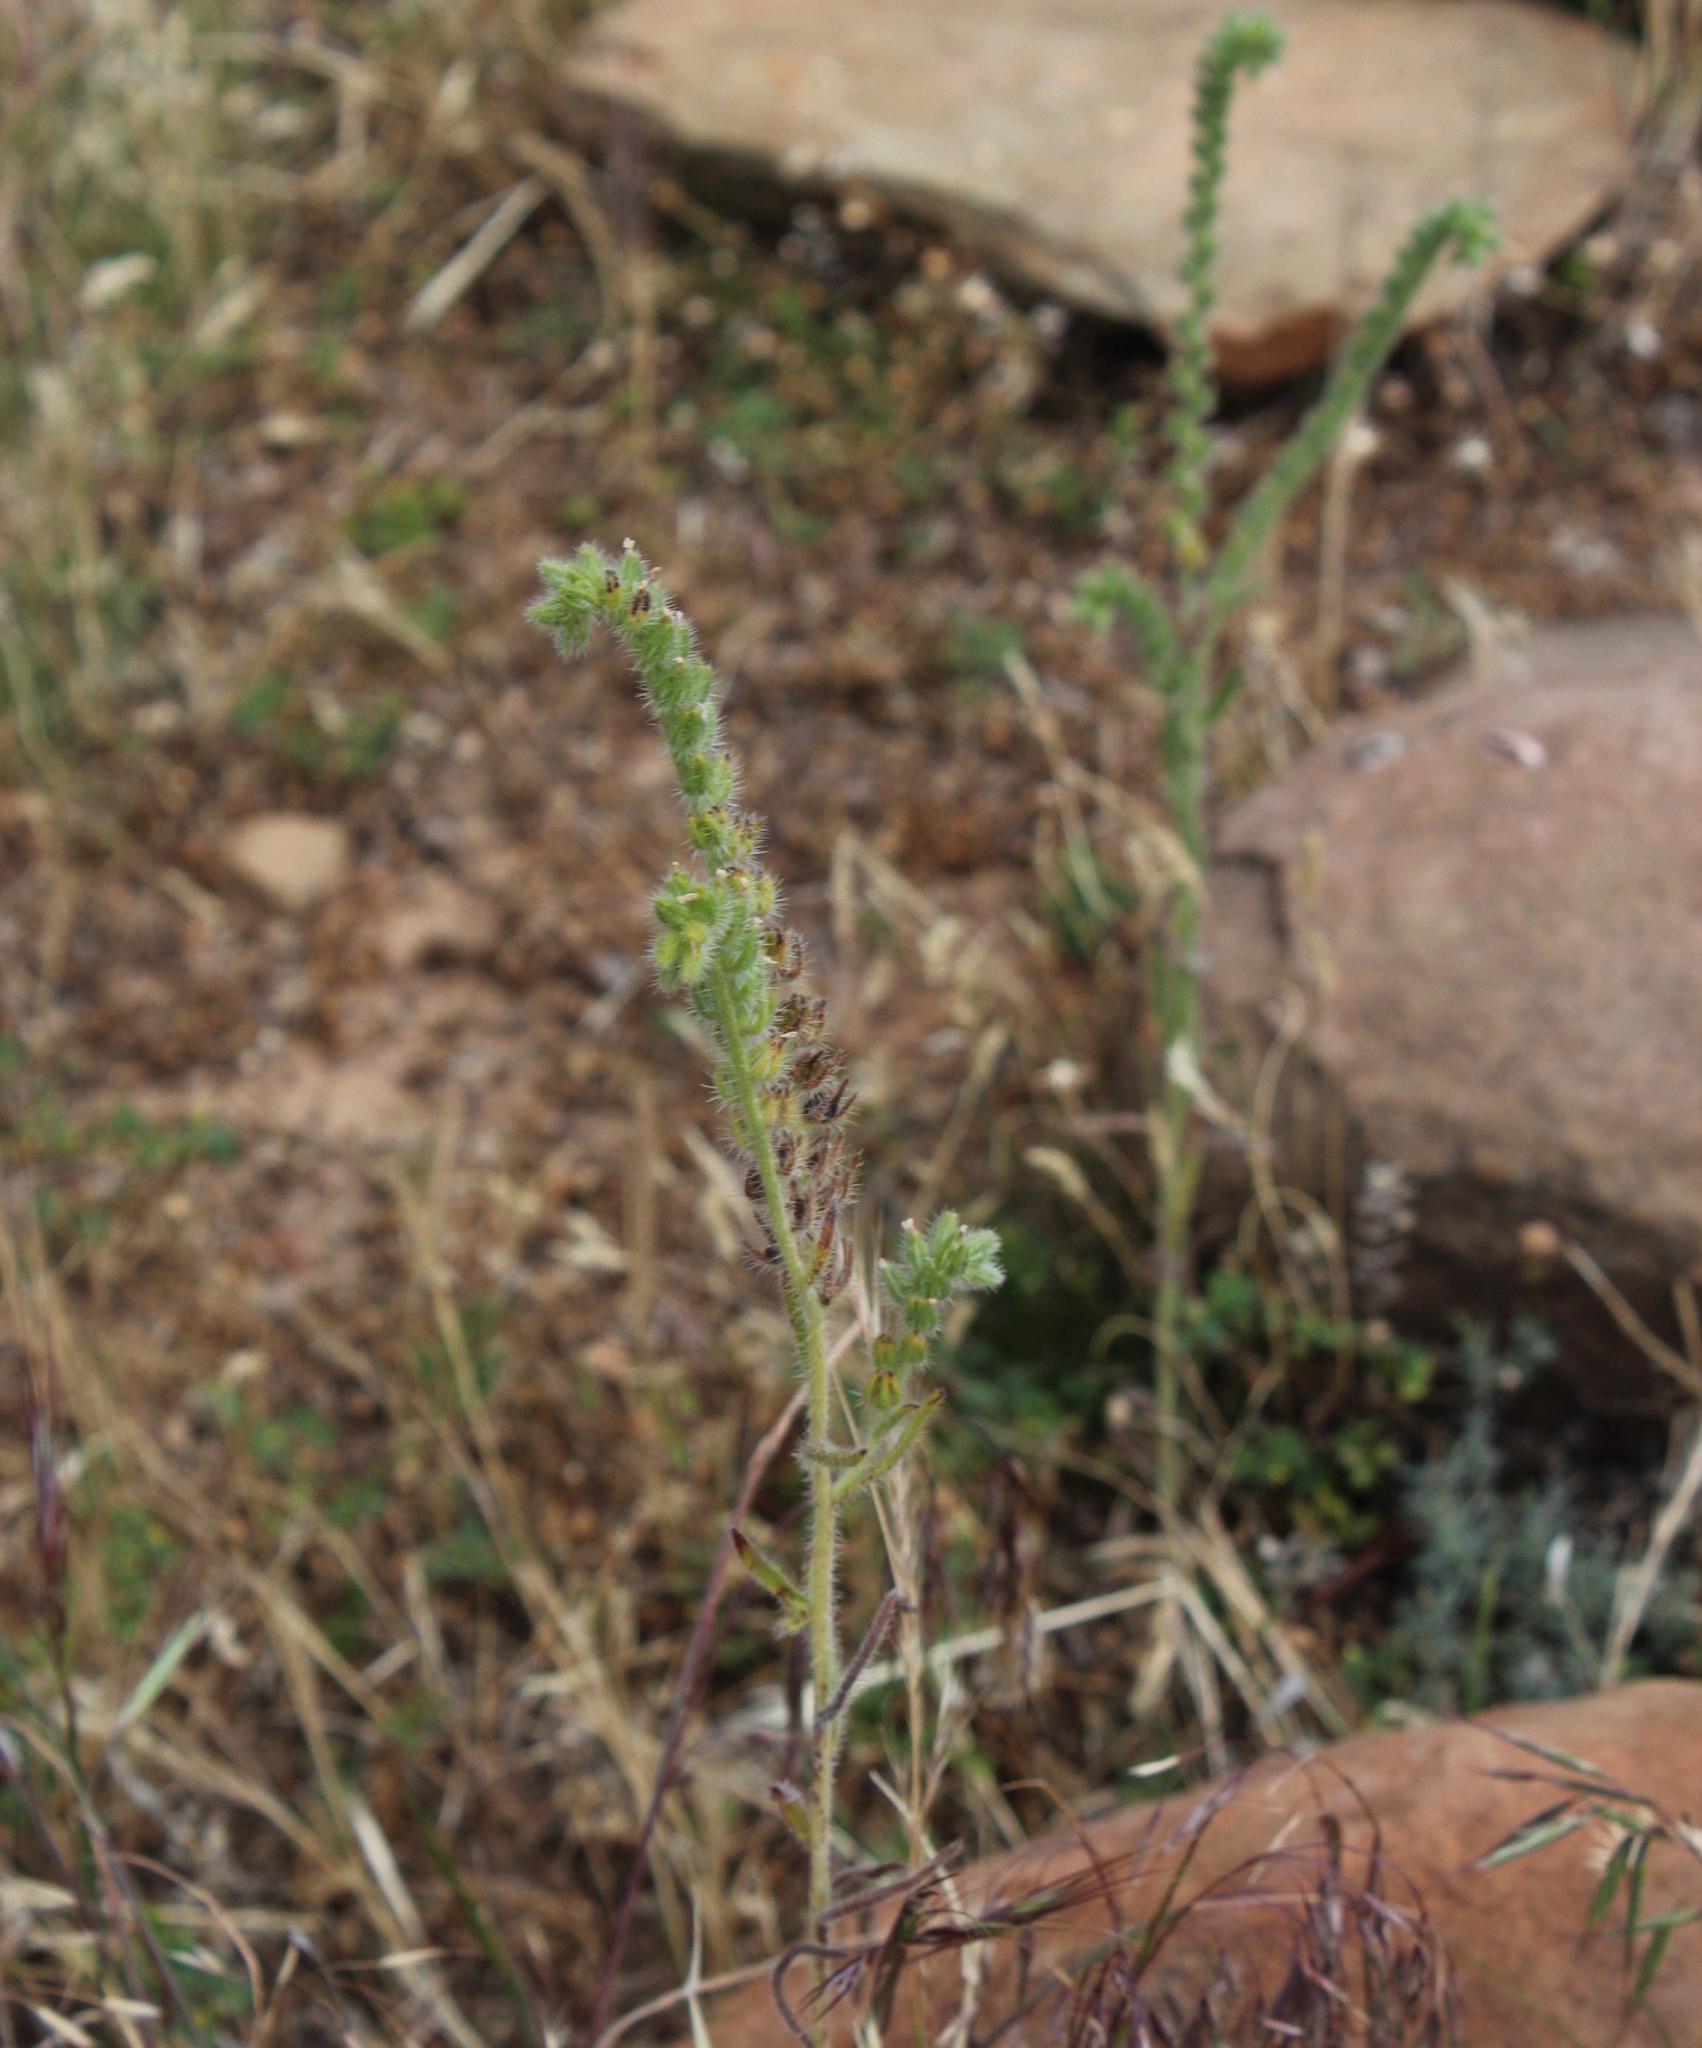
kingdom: Plantae
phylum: Tracheophyta
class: Magnoliopsida
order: Boraginales
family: Boraginaceae
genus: Amsinckia
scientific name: Amsinckia menziesii
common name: Menzies' fiddleneck
